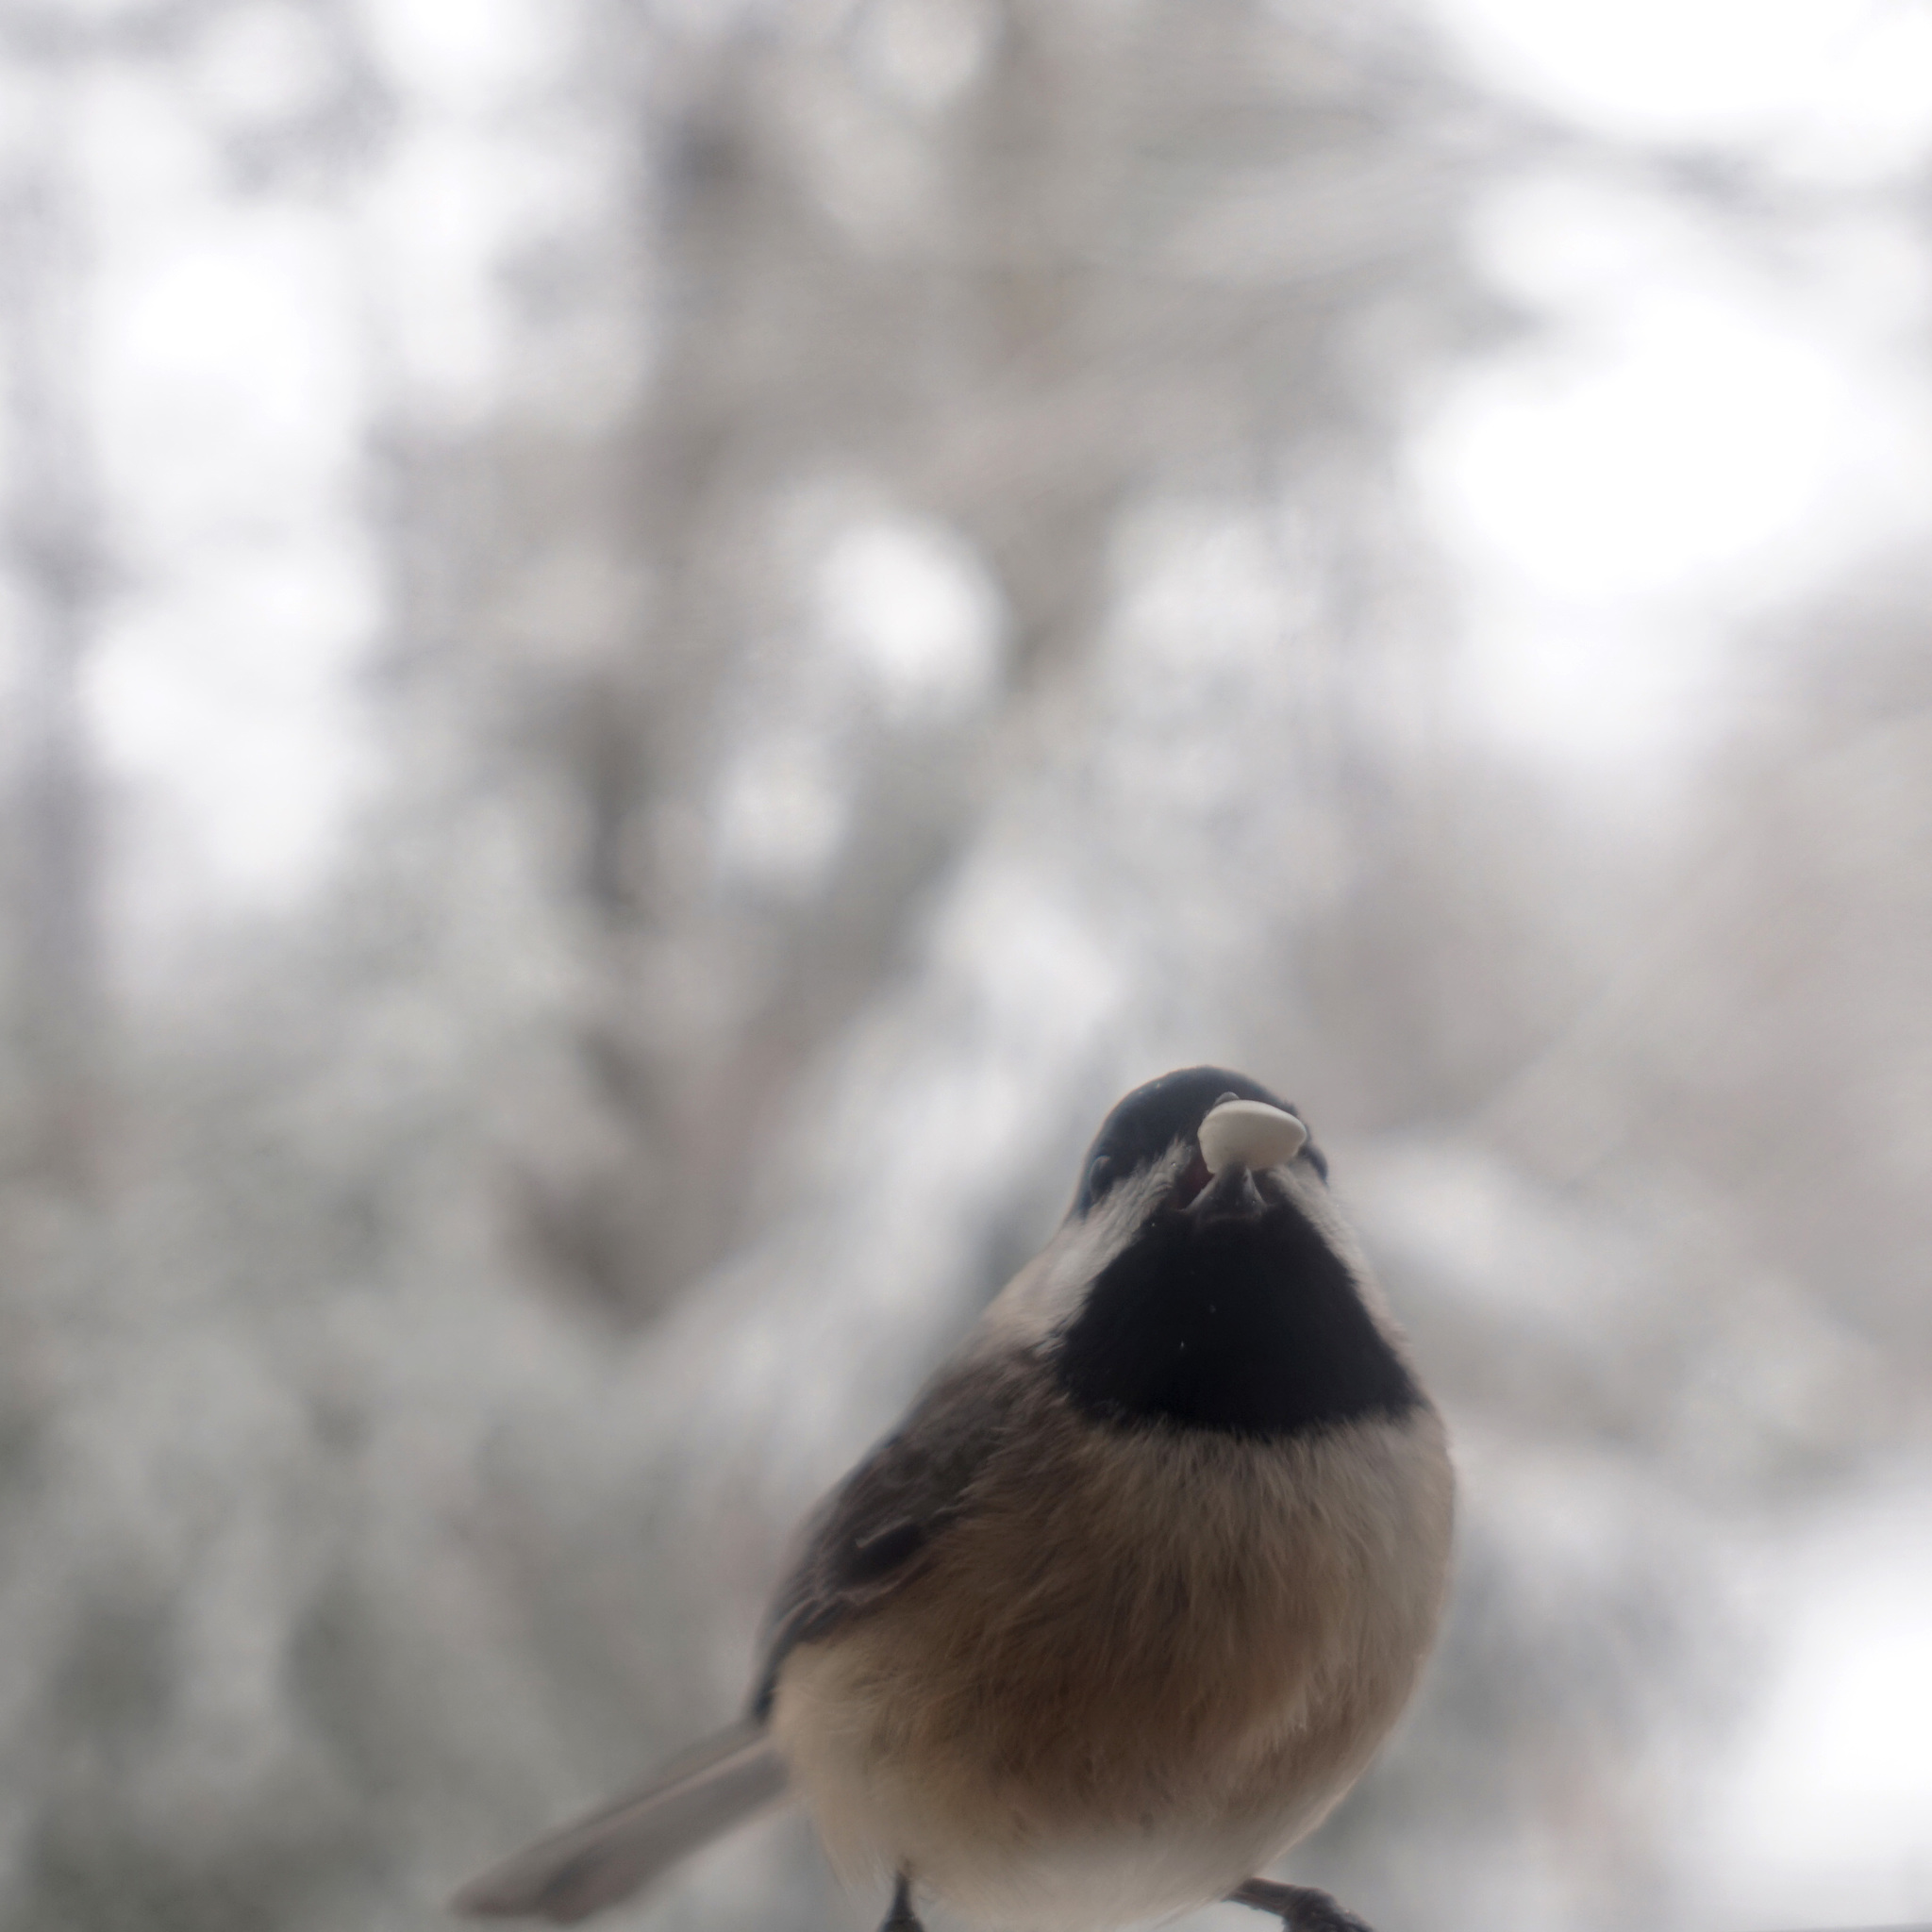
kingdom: Animalia
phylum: Chordata
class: Aves
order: Passeriformes
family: Paridae
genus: Poecile
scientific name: Poecile carolinensis
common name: Carolina chickadee
